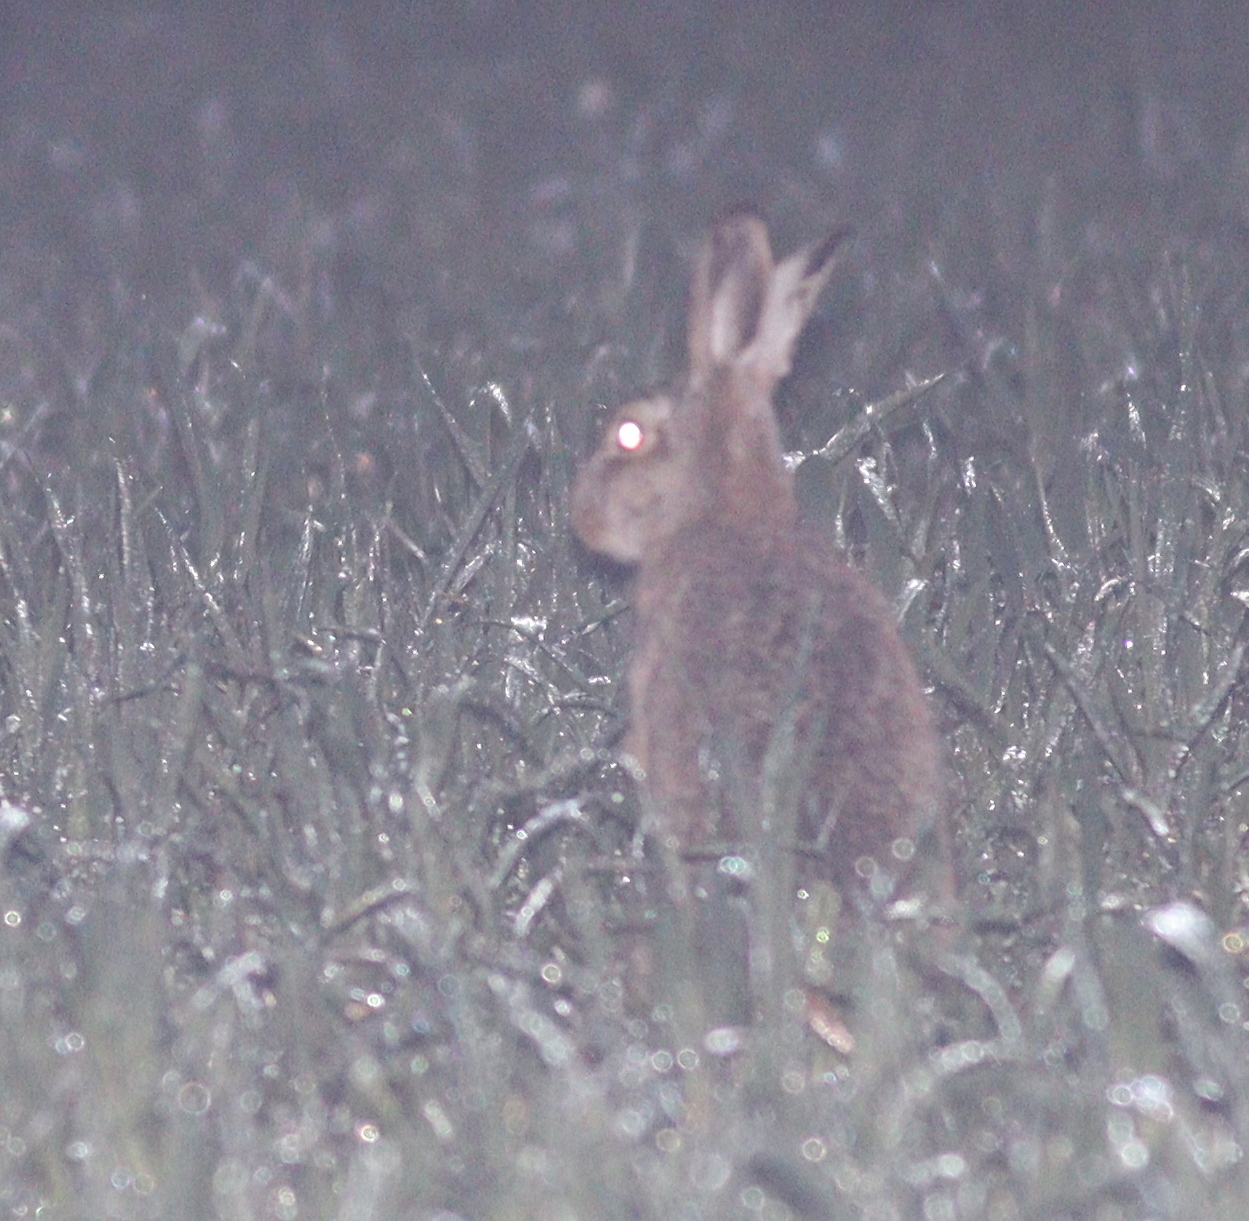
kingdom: Animalia
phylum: Chordata
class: Mammalia
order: Lagomorpha
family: Leporidae
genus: Lepus
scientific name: Lepus europaeus
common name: European hare
